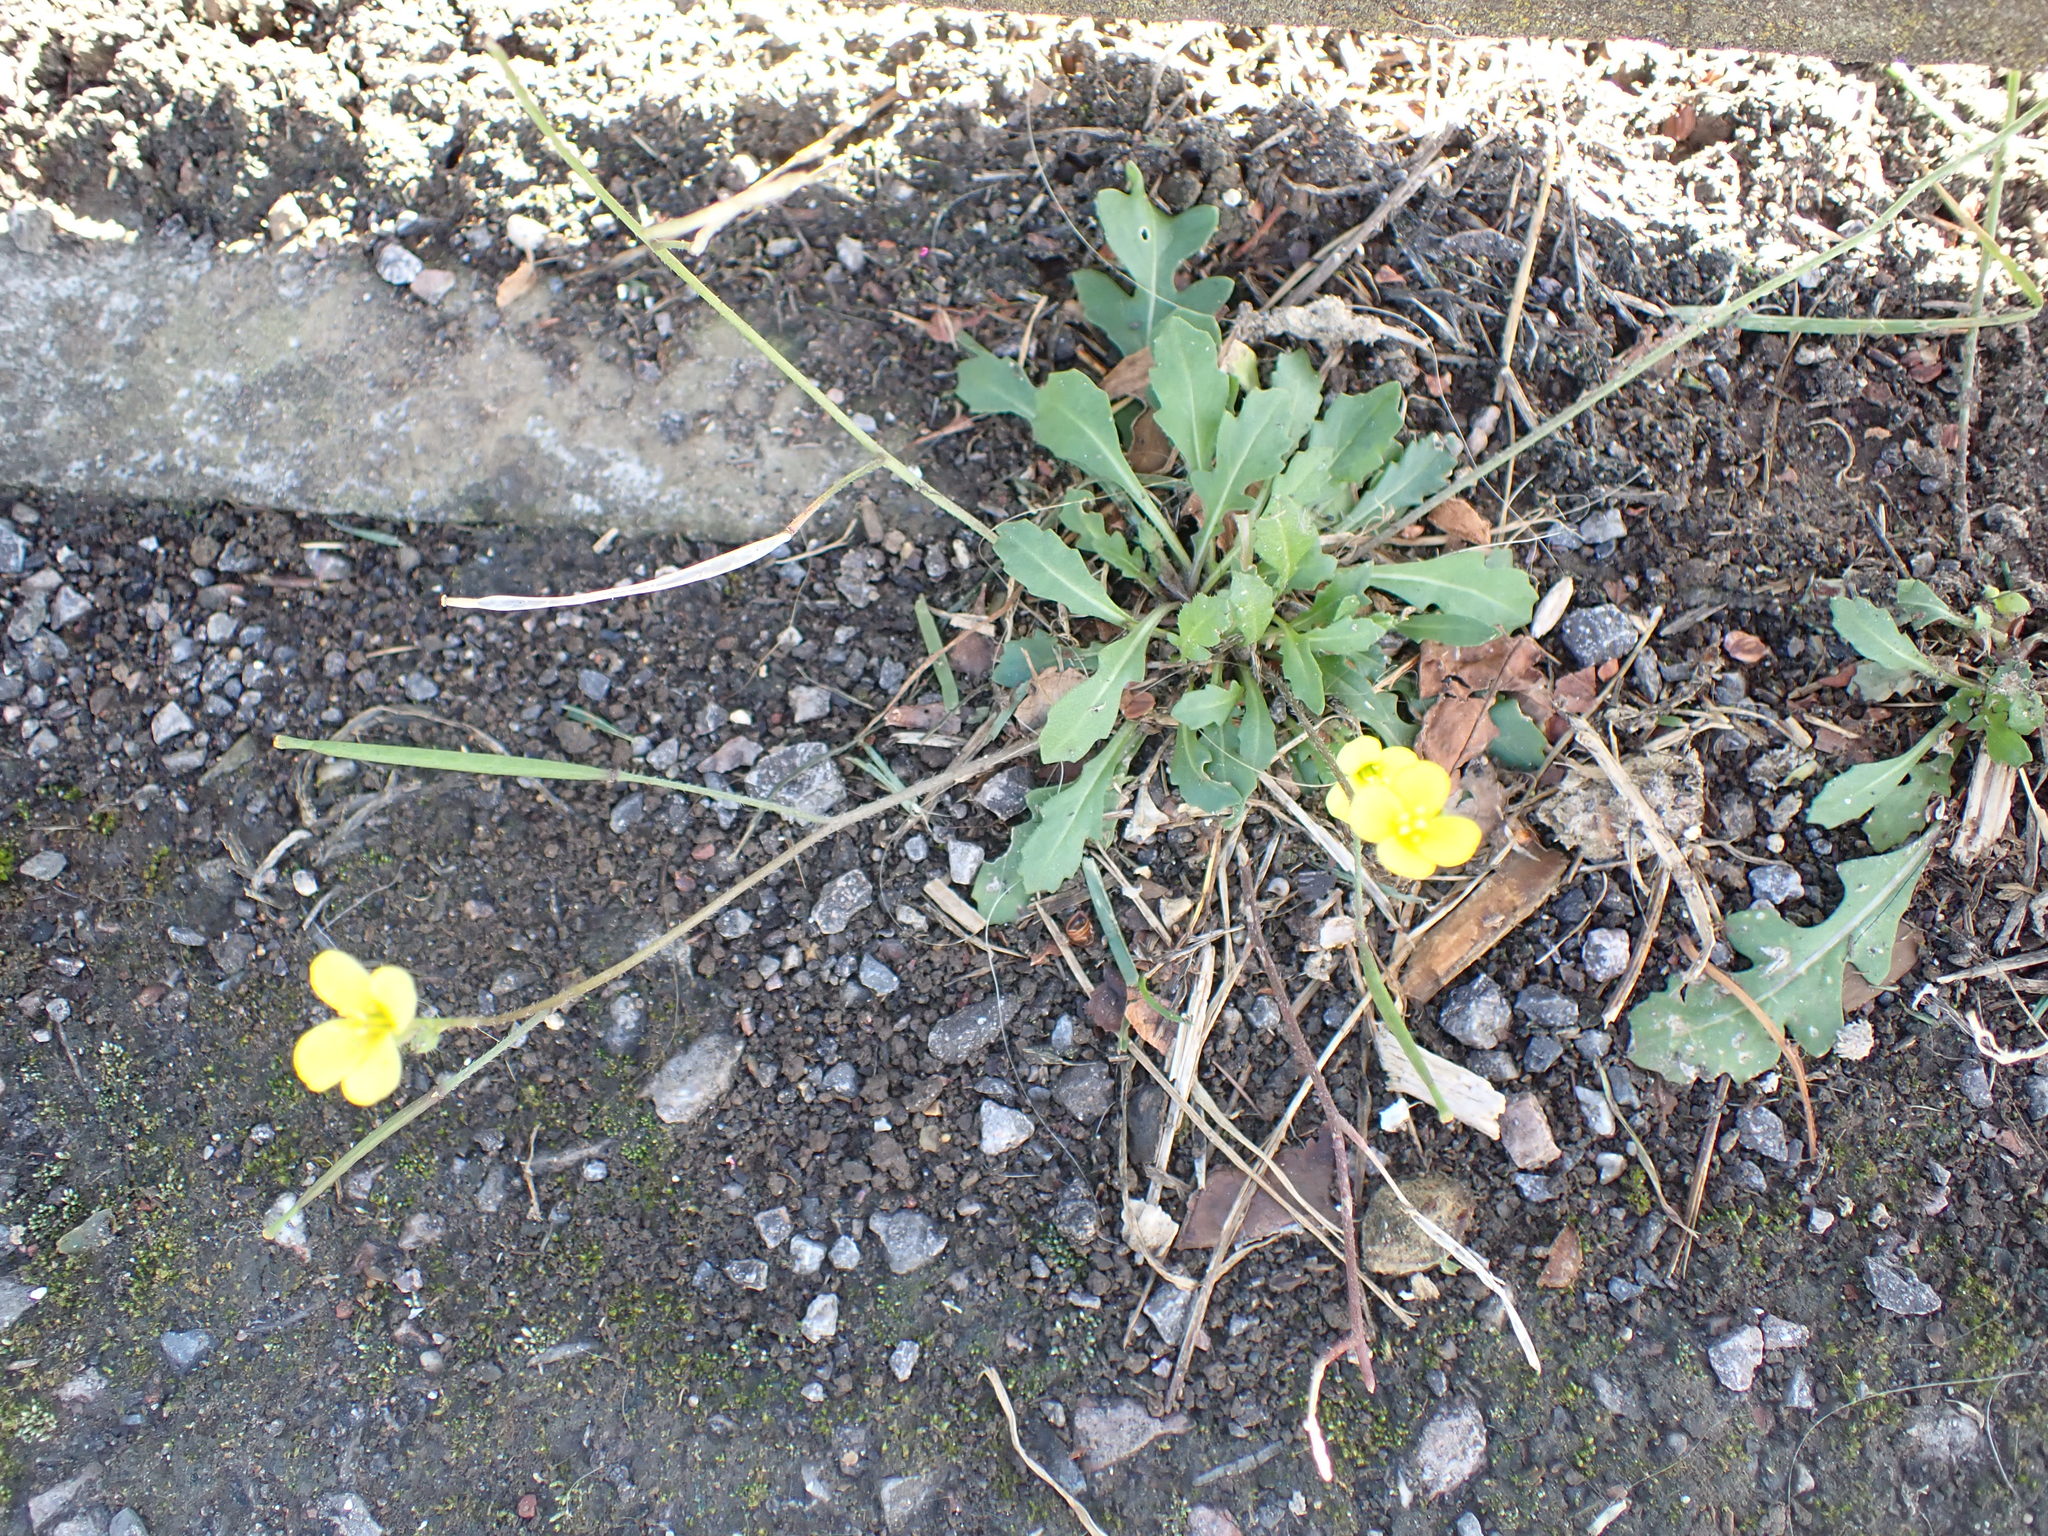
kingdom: Plantae
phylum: Tracheophyta
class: Magnoliopsida
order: Brassicales
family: Brassicaceae
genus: Diplotaxis
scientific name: Diplotaxis muralis
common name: Annual wall-rocket
